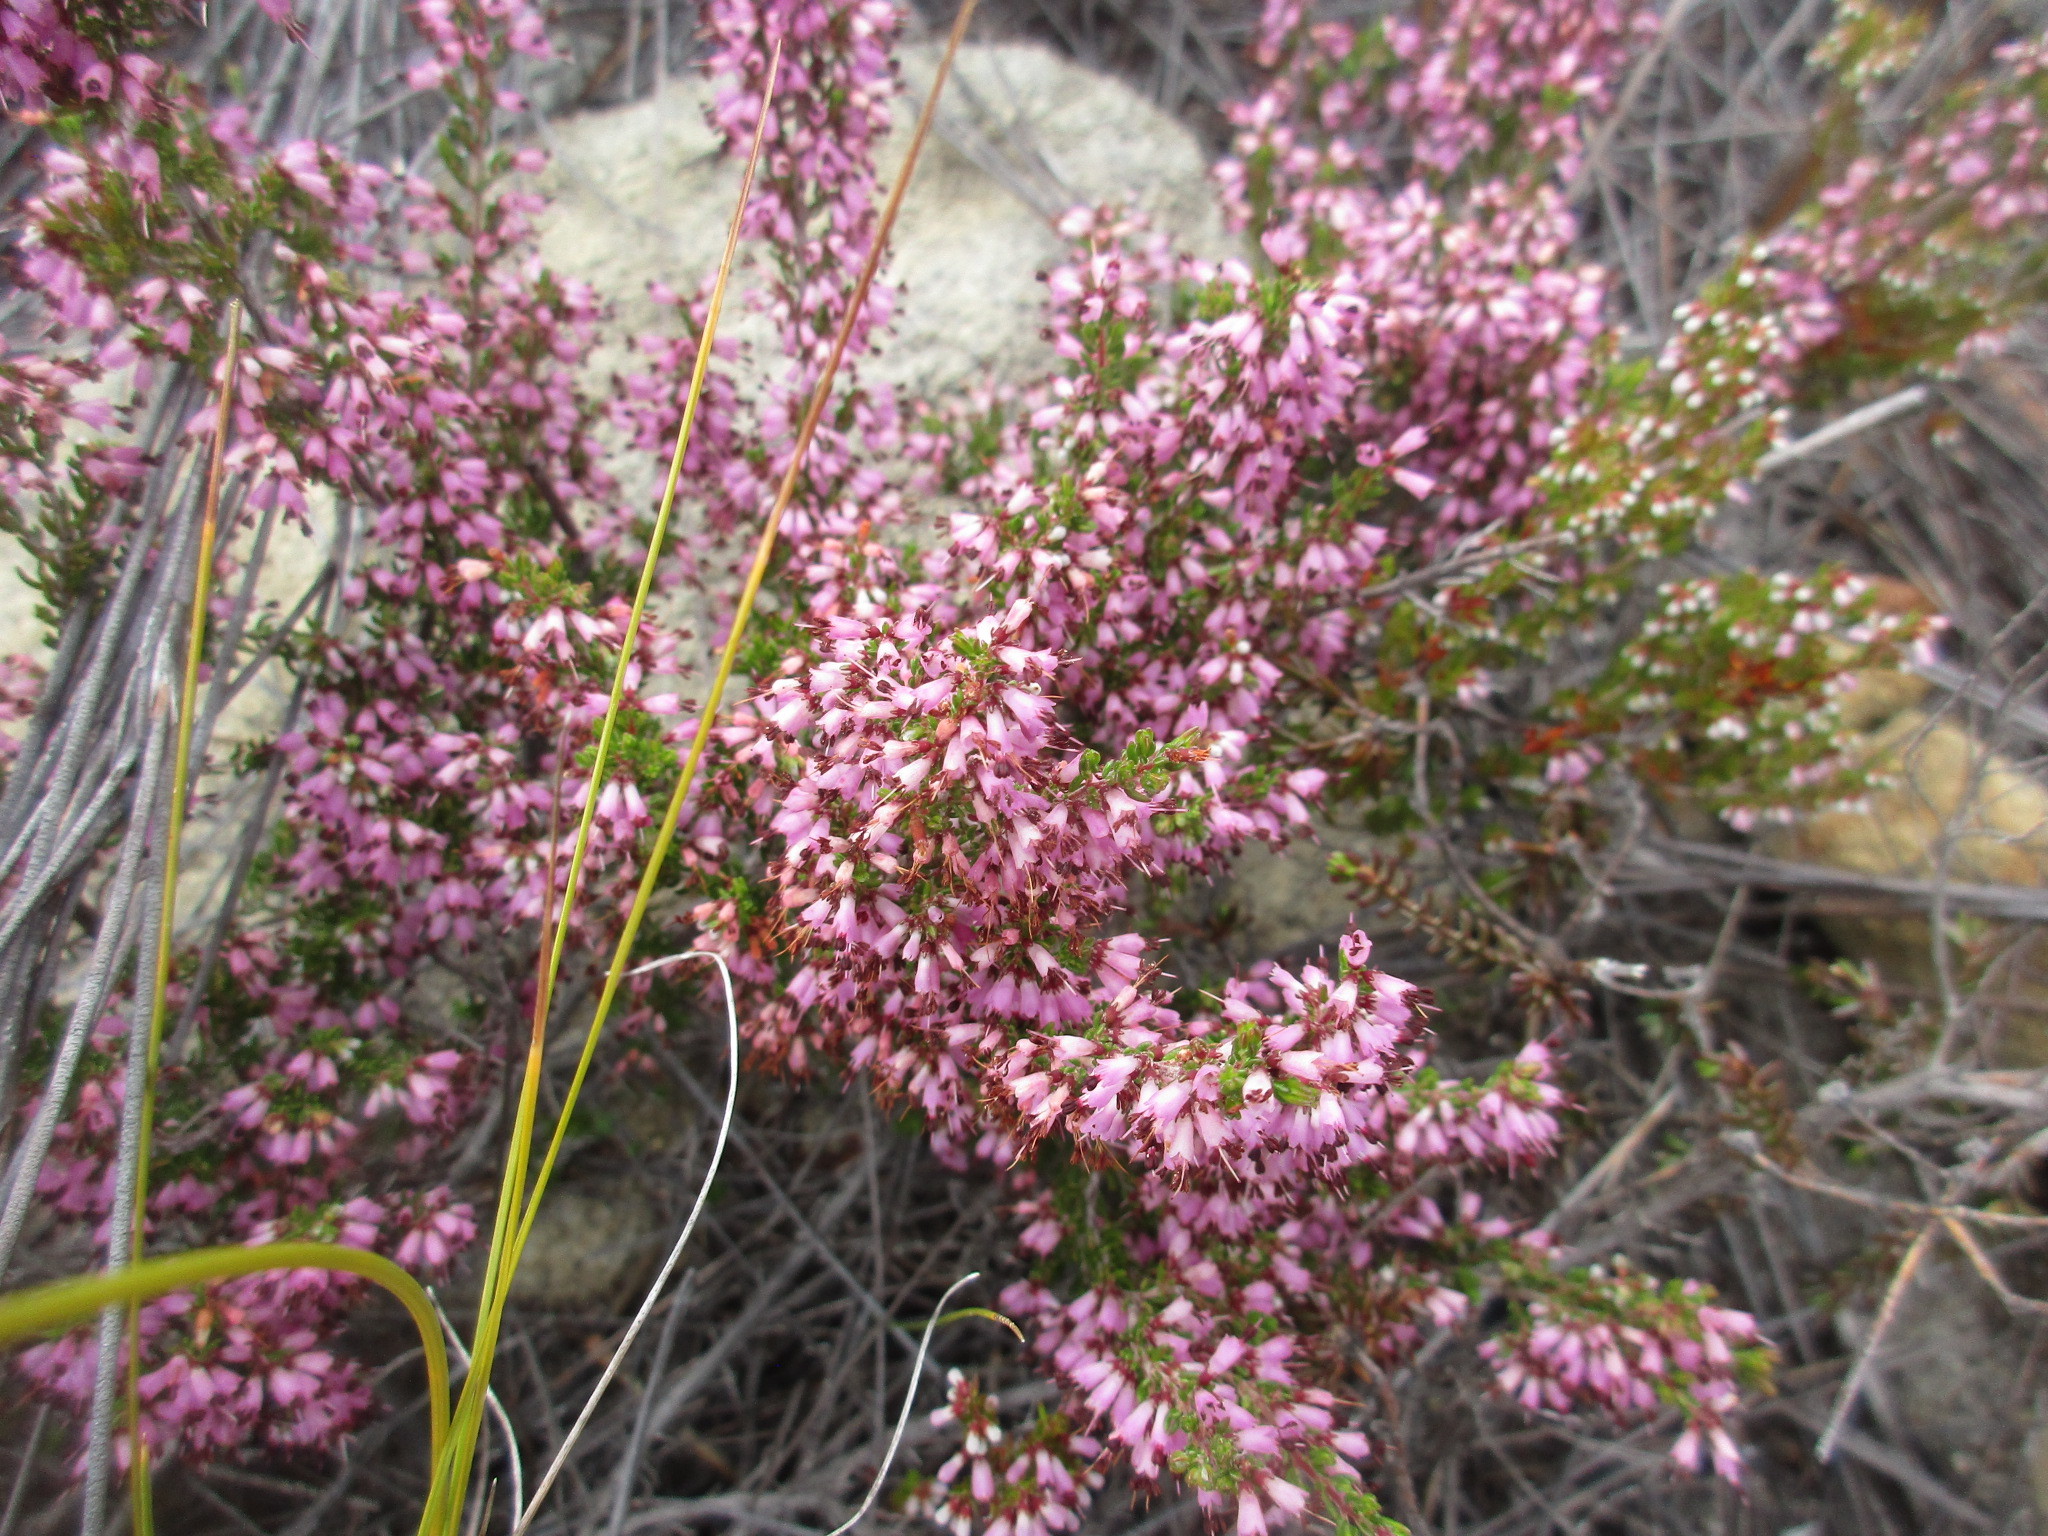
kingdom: Plantae
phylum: Tracheophyta
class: Magnoliopsida
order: Ericales
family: Ericaceae
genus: Erica
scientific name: Erica nudiflora
